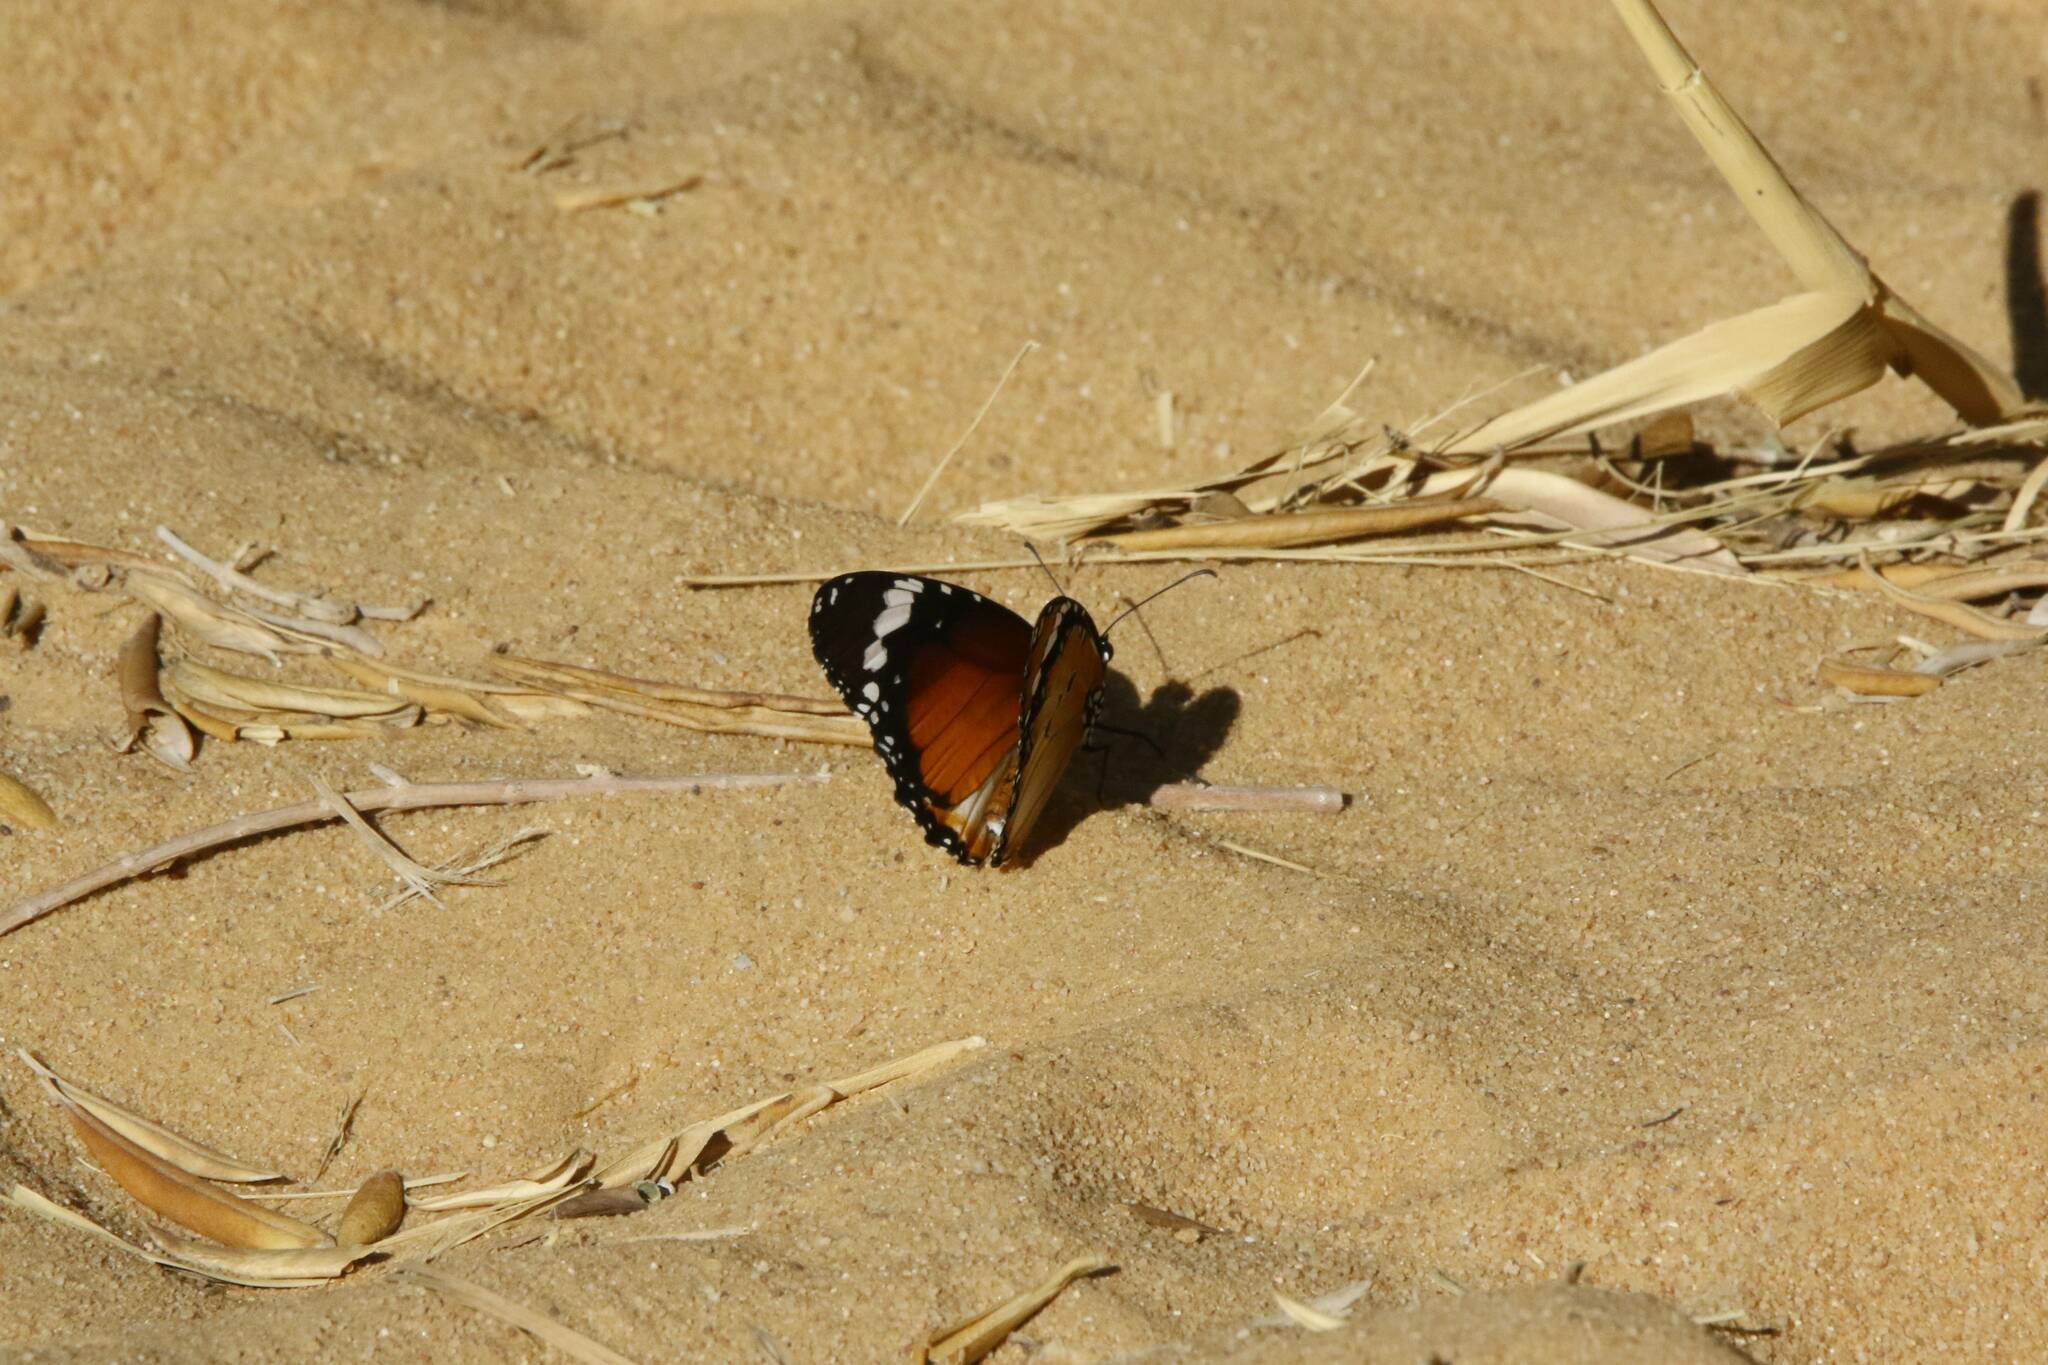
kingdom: Animalia
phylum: Arthropoda
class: Insecta
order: Lepidoptera
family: Nymphalidae
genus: Danaus
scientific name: Danaus chrysippus
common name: Plain tiger
